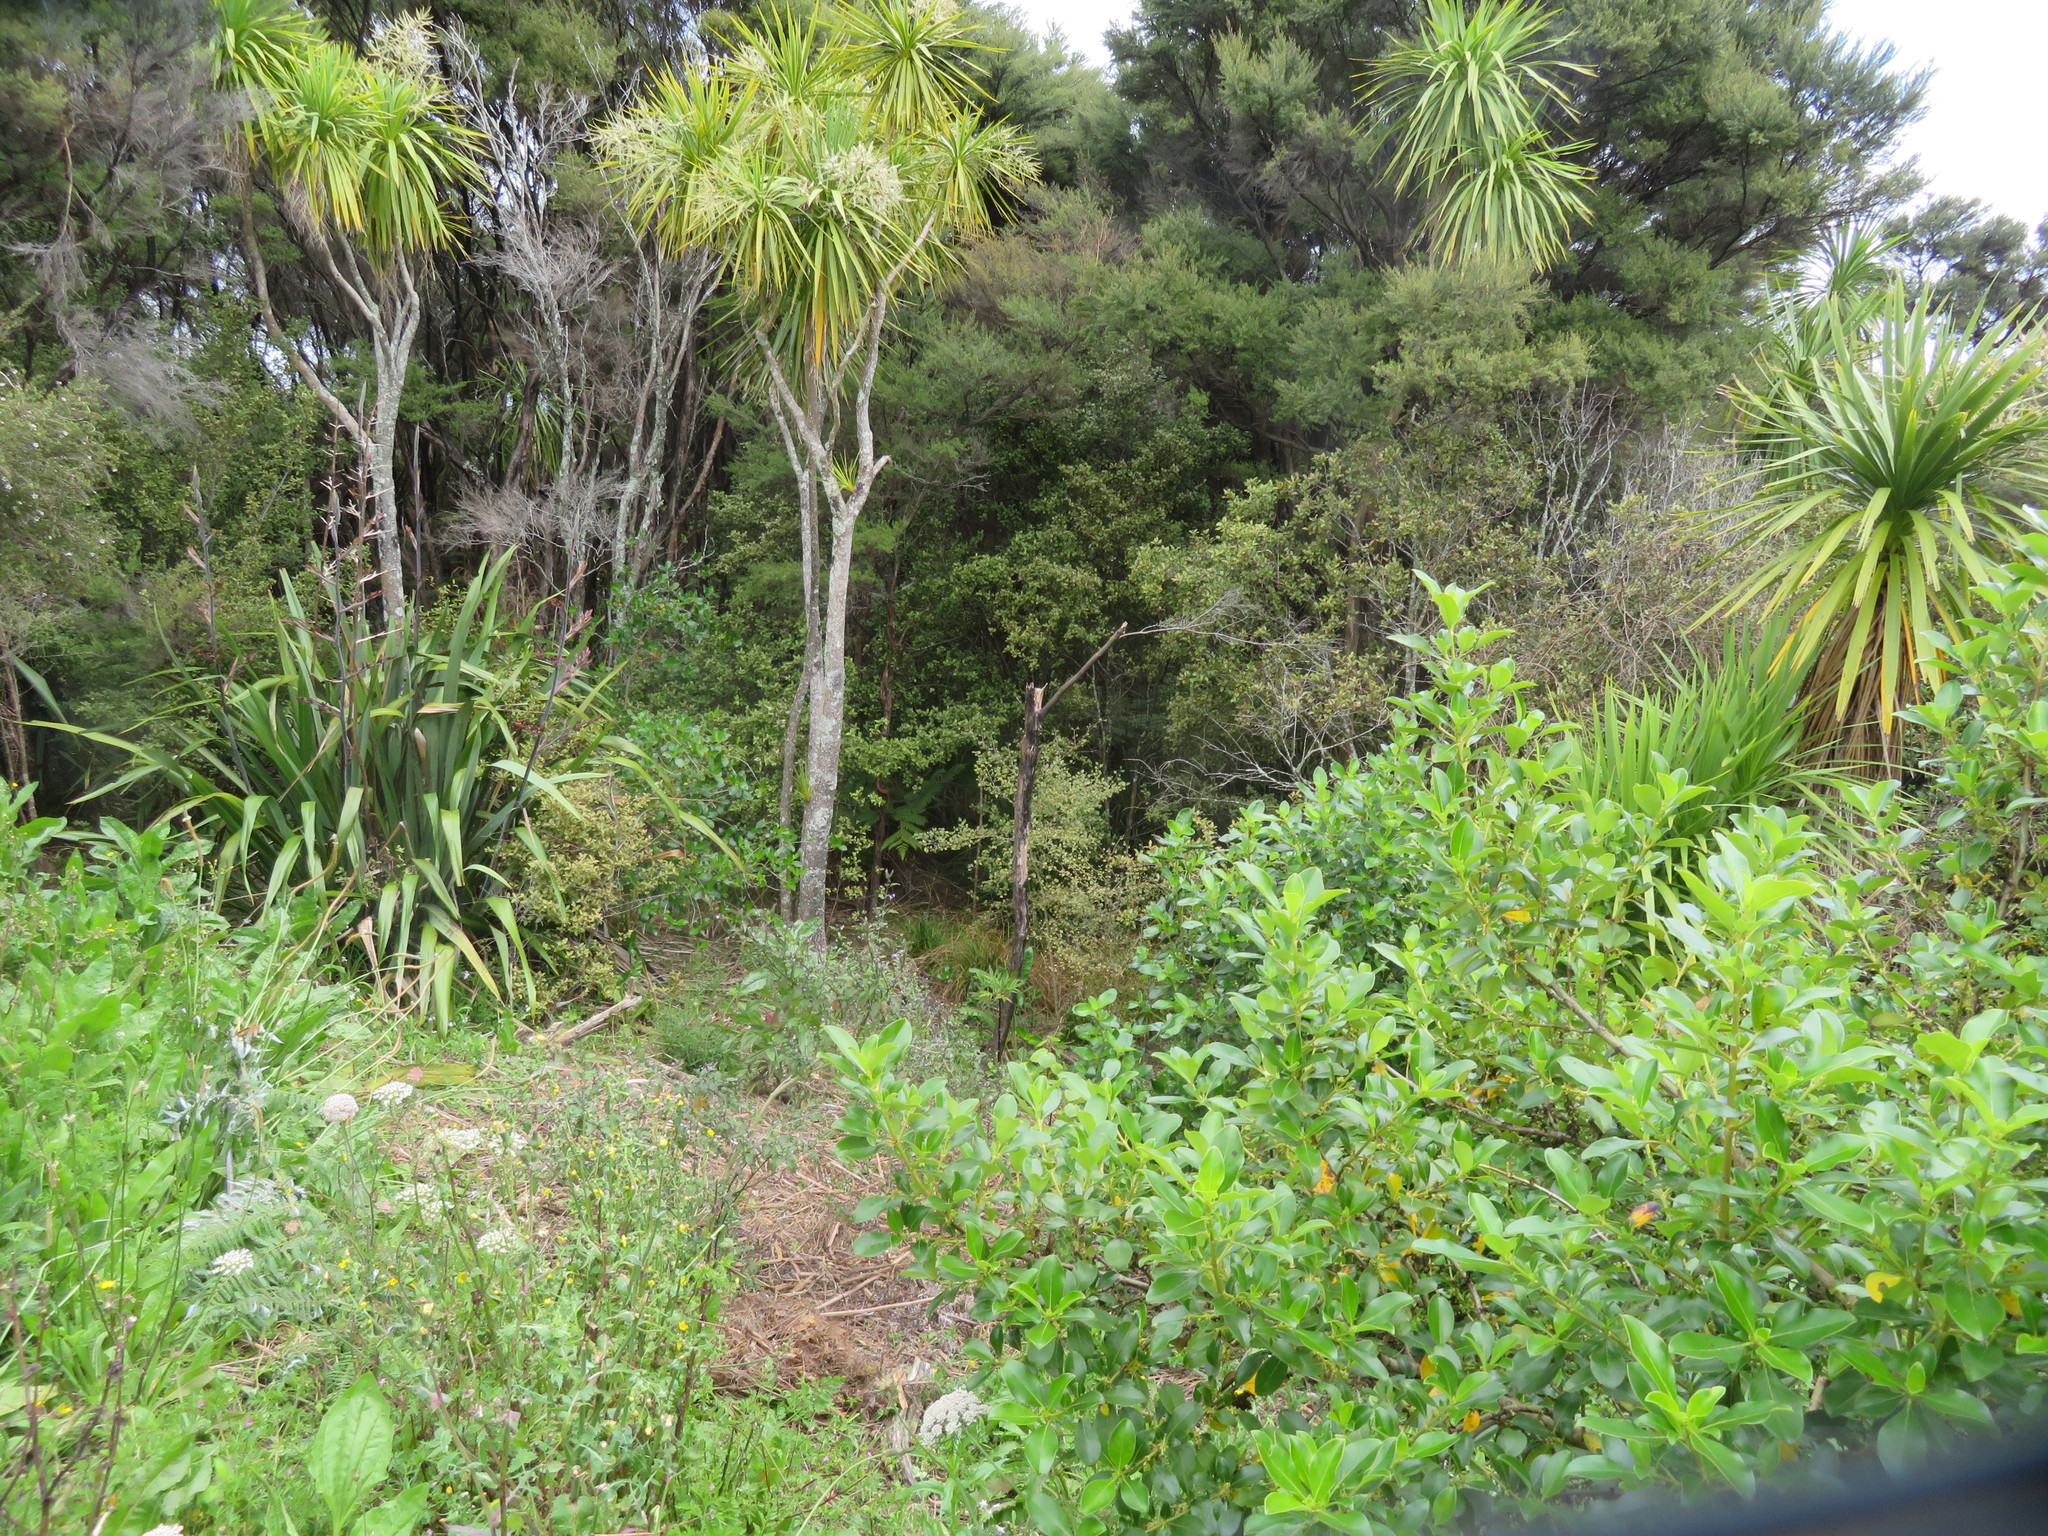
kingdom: Plantae
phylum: Tracheophyta
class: Liliopsida
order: Asparagales
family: Asparagaceae
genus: Cordyline
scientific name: Cordyline australis
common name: Cabbage-palm
